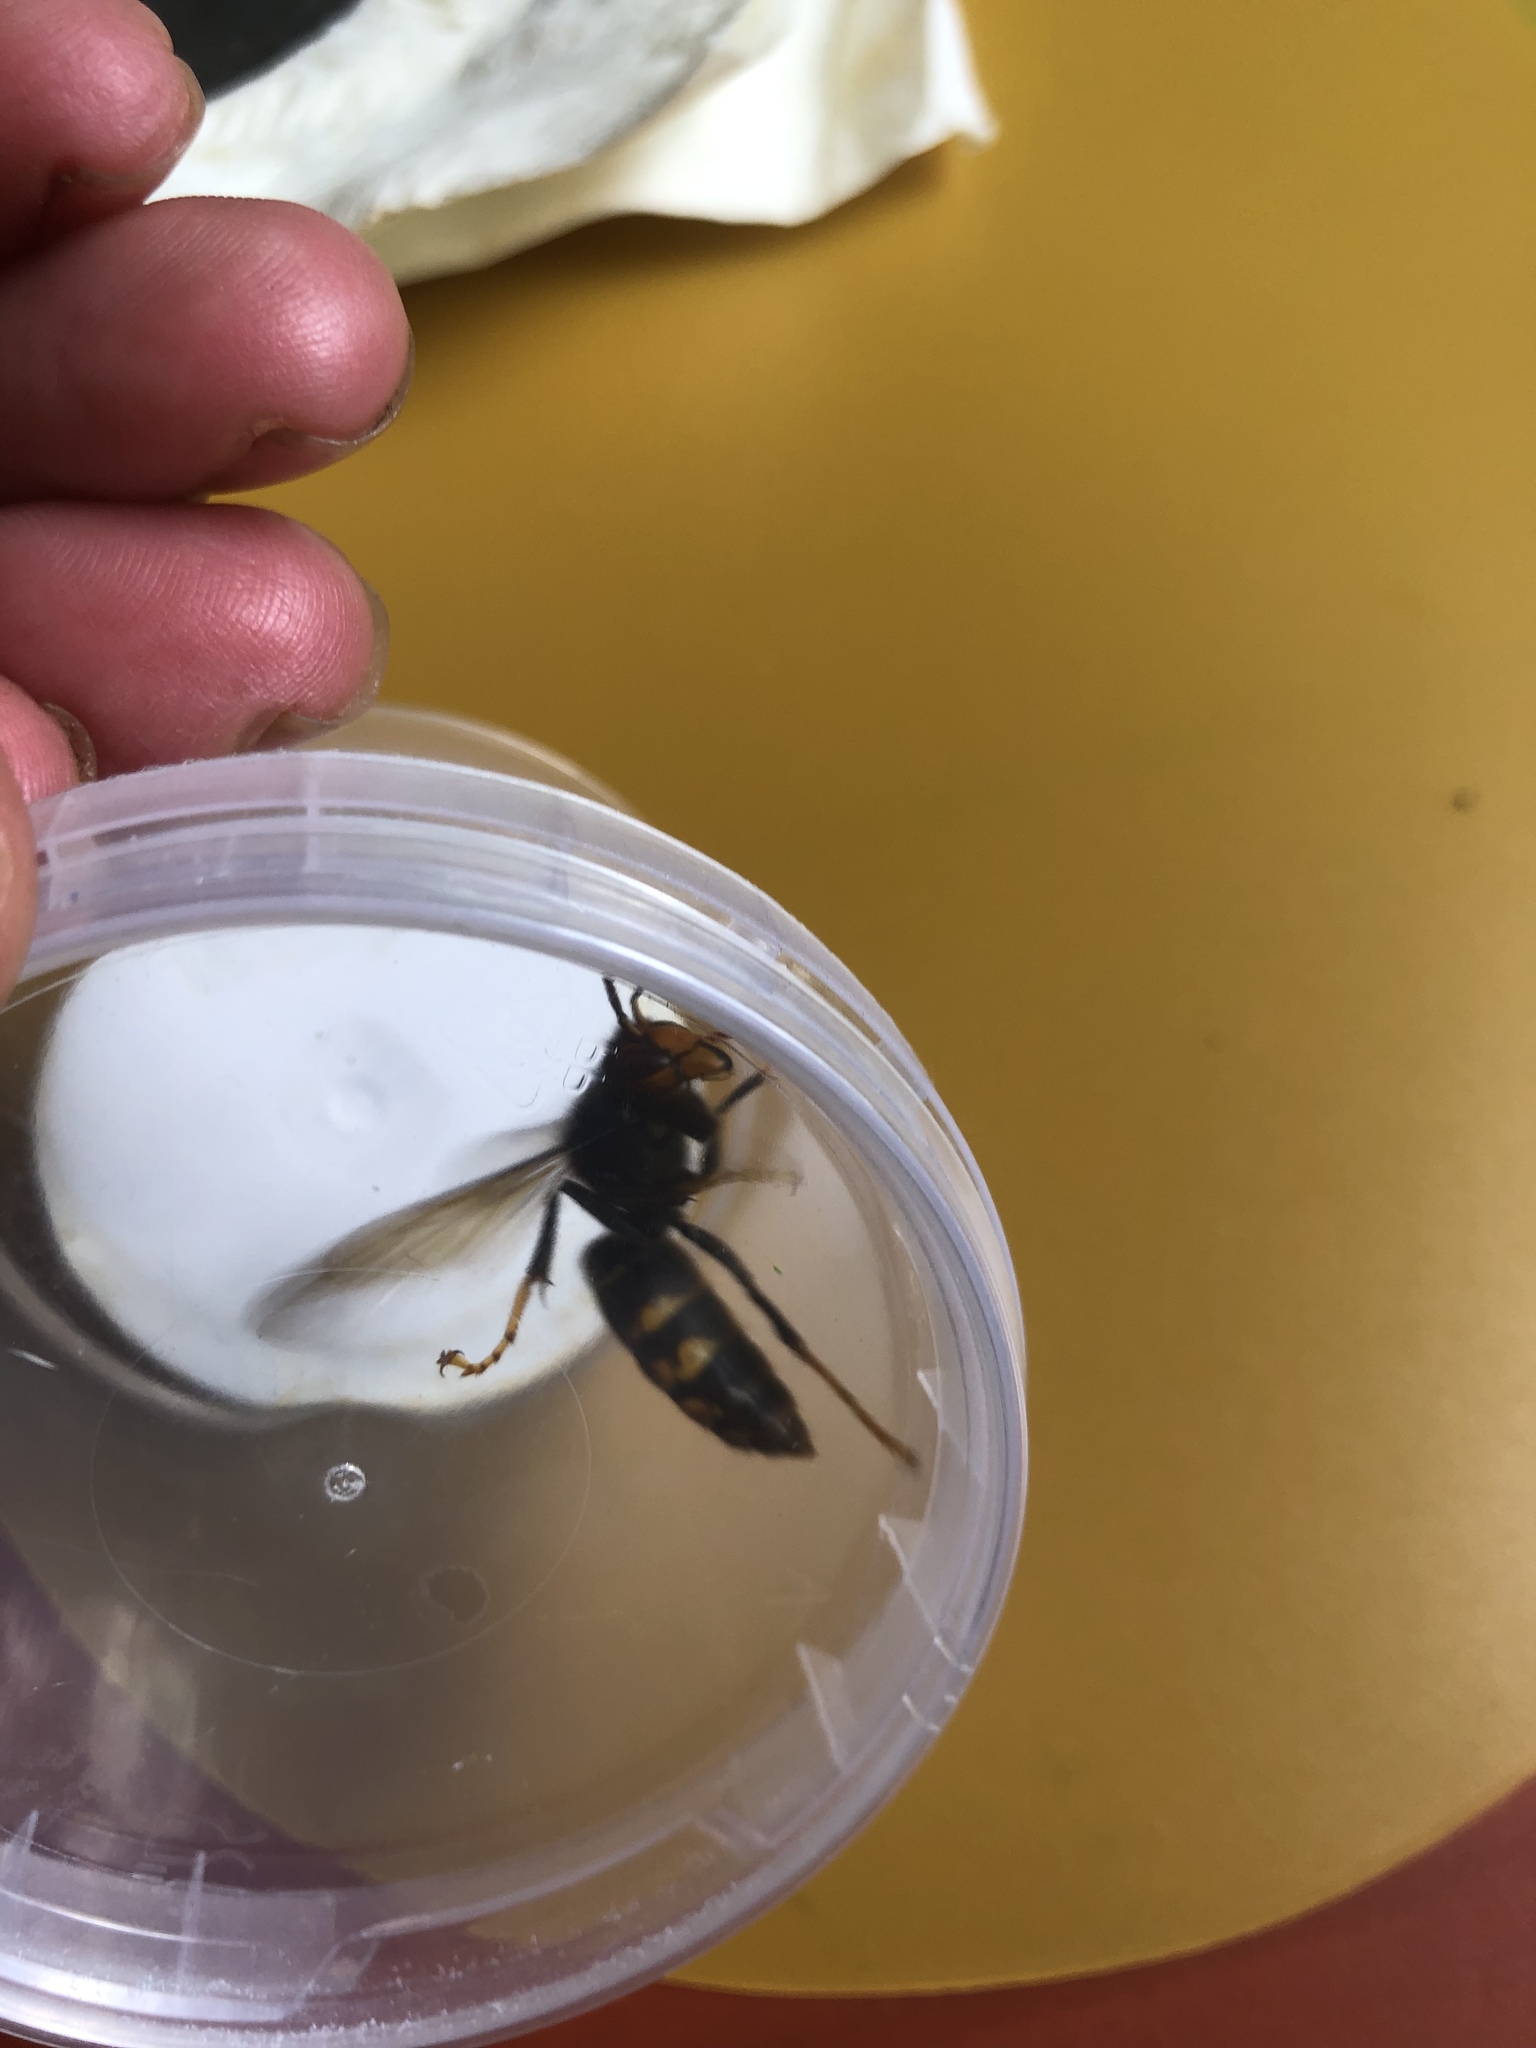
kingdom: Animalia
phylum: Arthropoda
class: Insecta
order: Hymenoptera
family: Vespidae
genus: Vespa
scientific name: Vespa velutina
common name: Asian hornet
